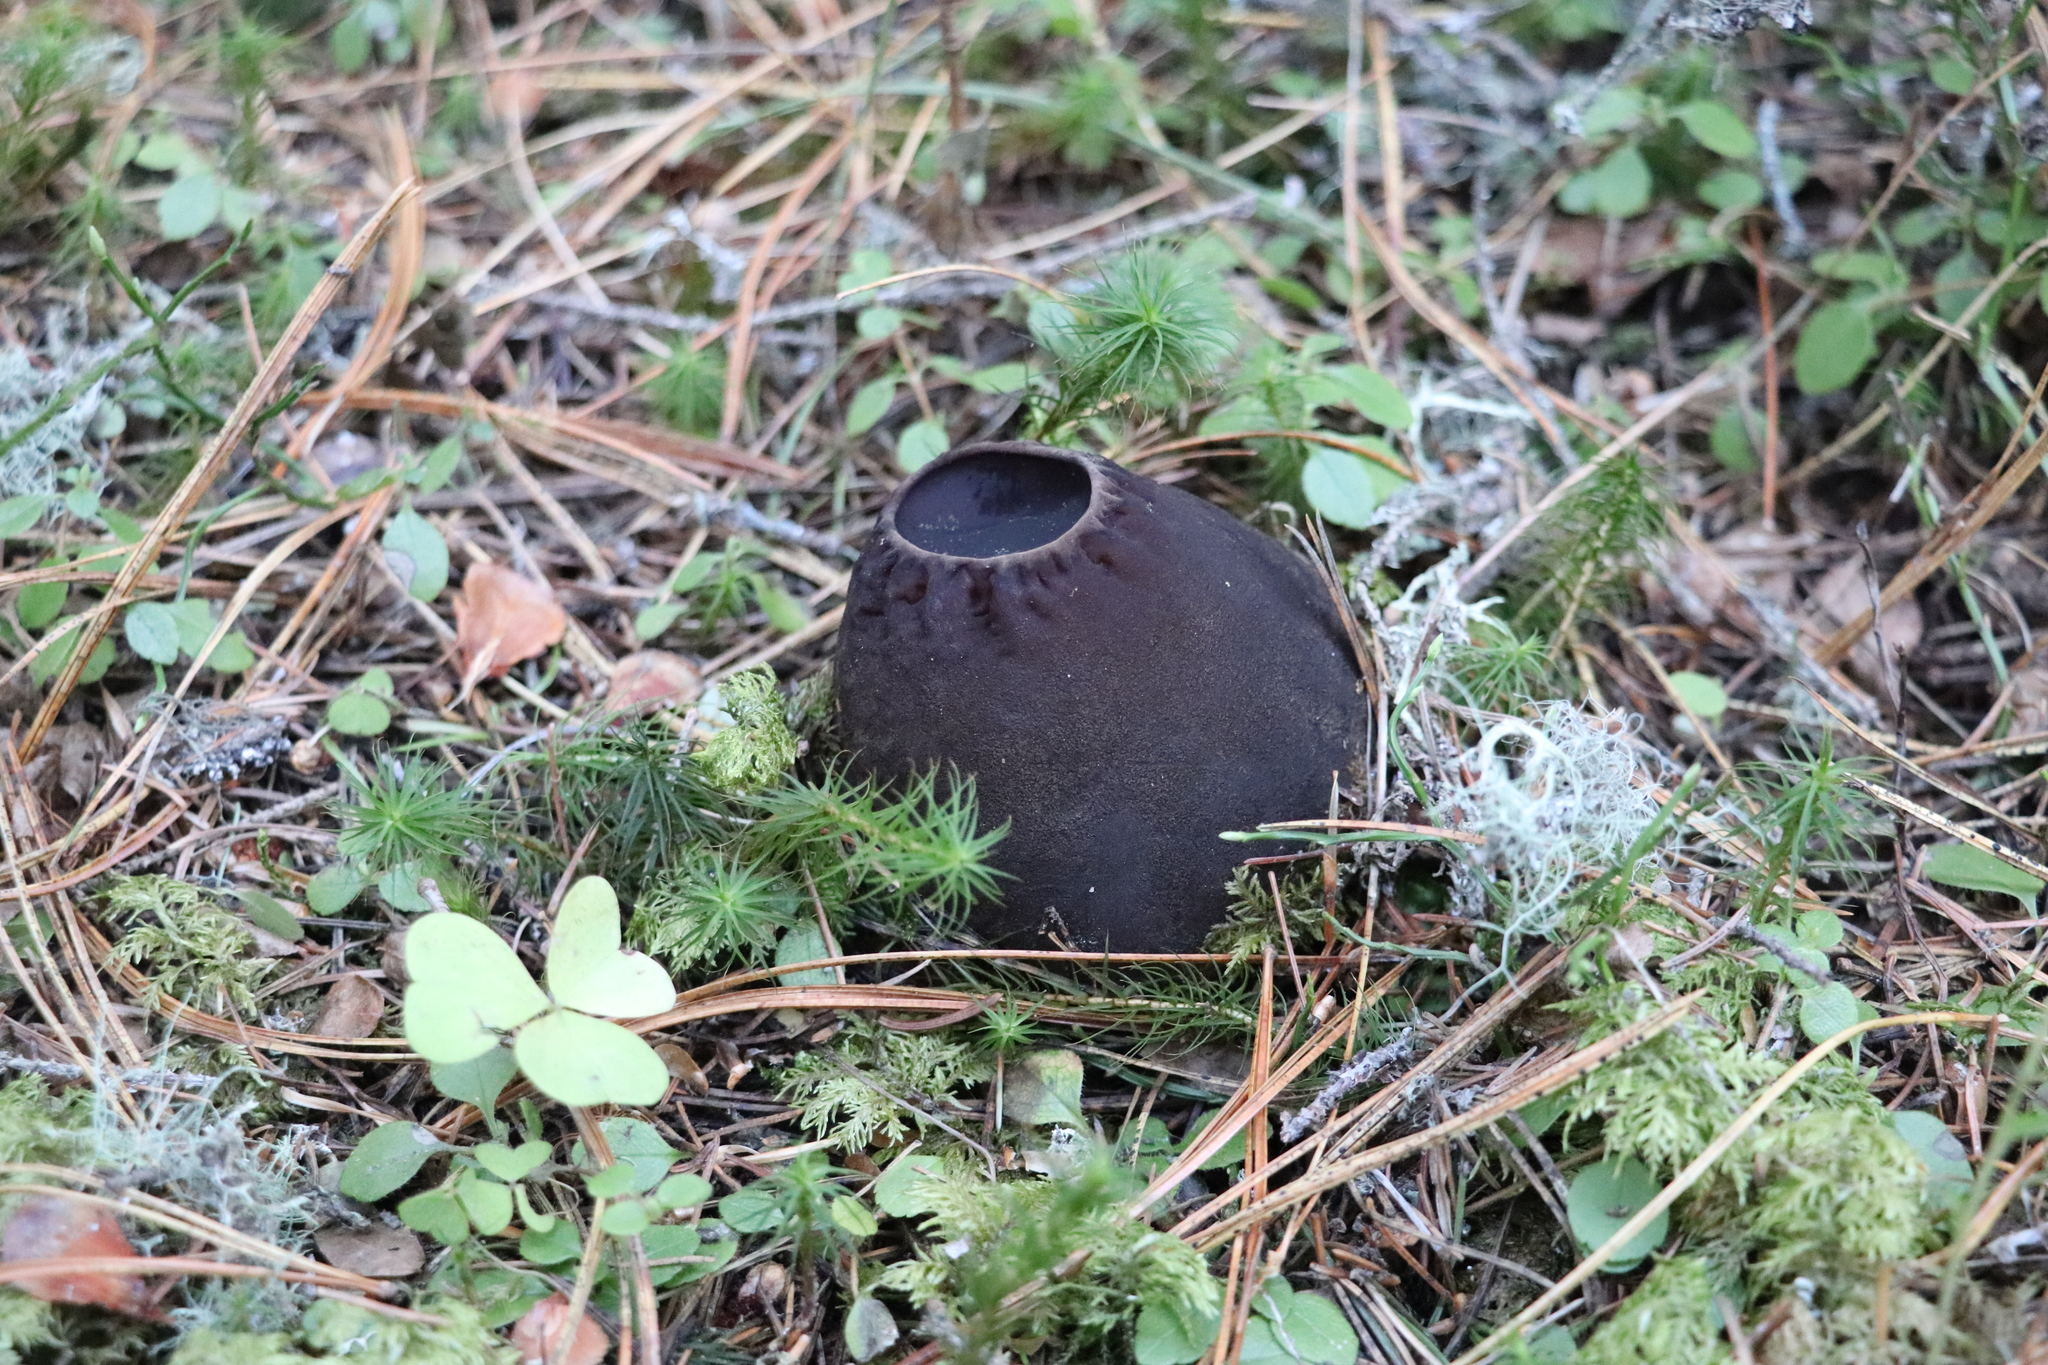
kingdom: Fungi
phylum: Ascomycota
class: Pezizomycetes
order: Pezizales
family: Sarcosomataceae
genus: Sarcosoma
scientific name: Sarcosoma globosum
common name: Charred-pancake cup
